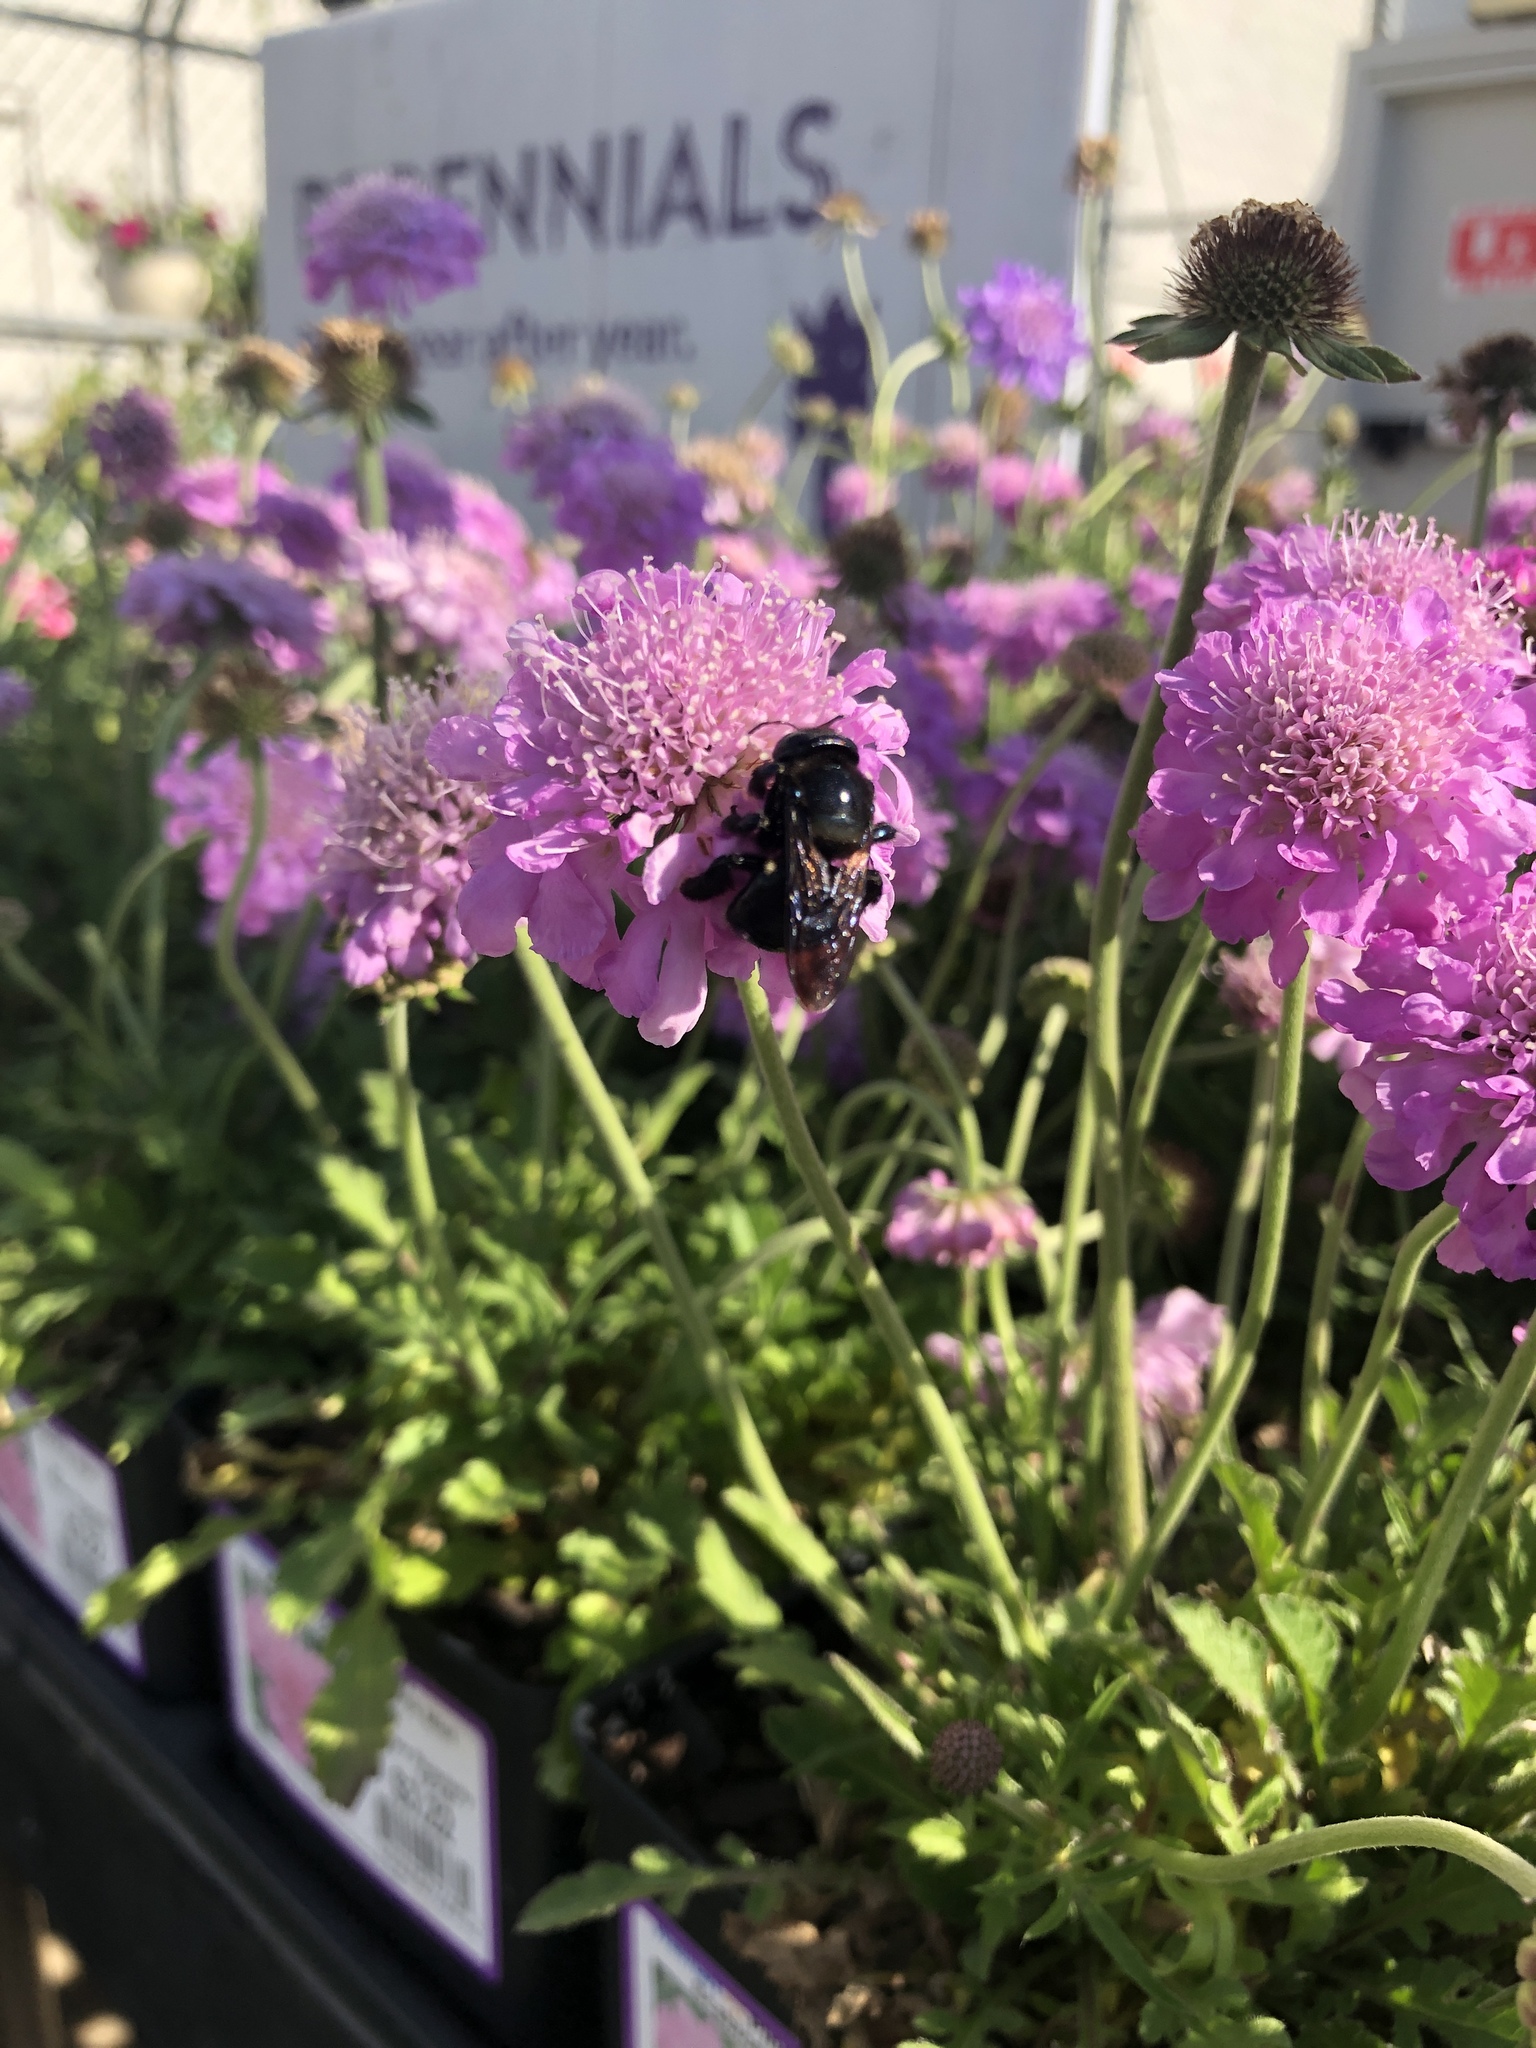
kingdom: Animalia
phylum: Arthropoda
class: Insecta
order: Hymenoptera
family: Apidae
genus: Xylocopa
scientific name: Xylocopa micans
